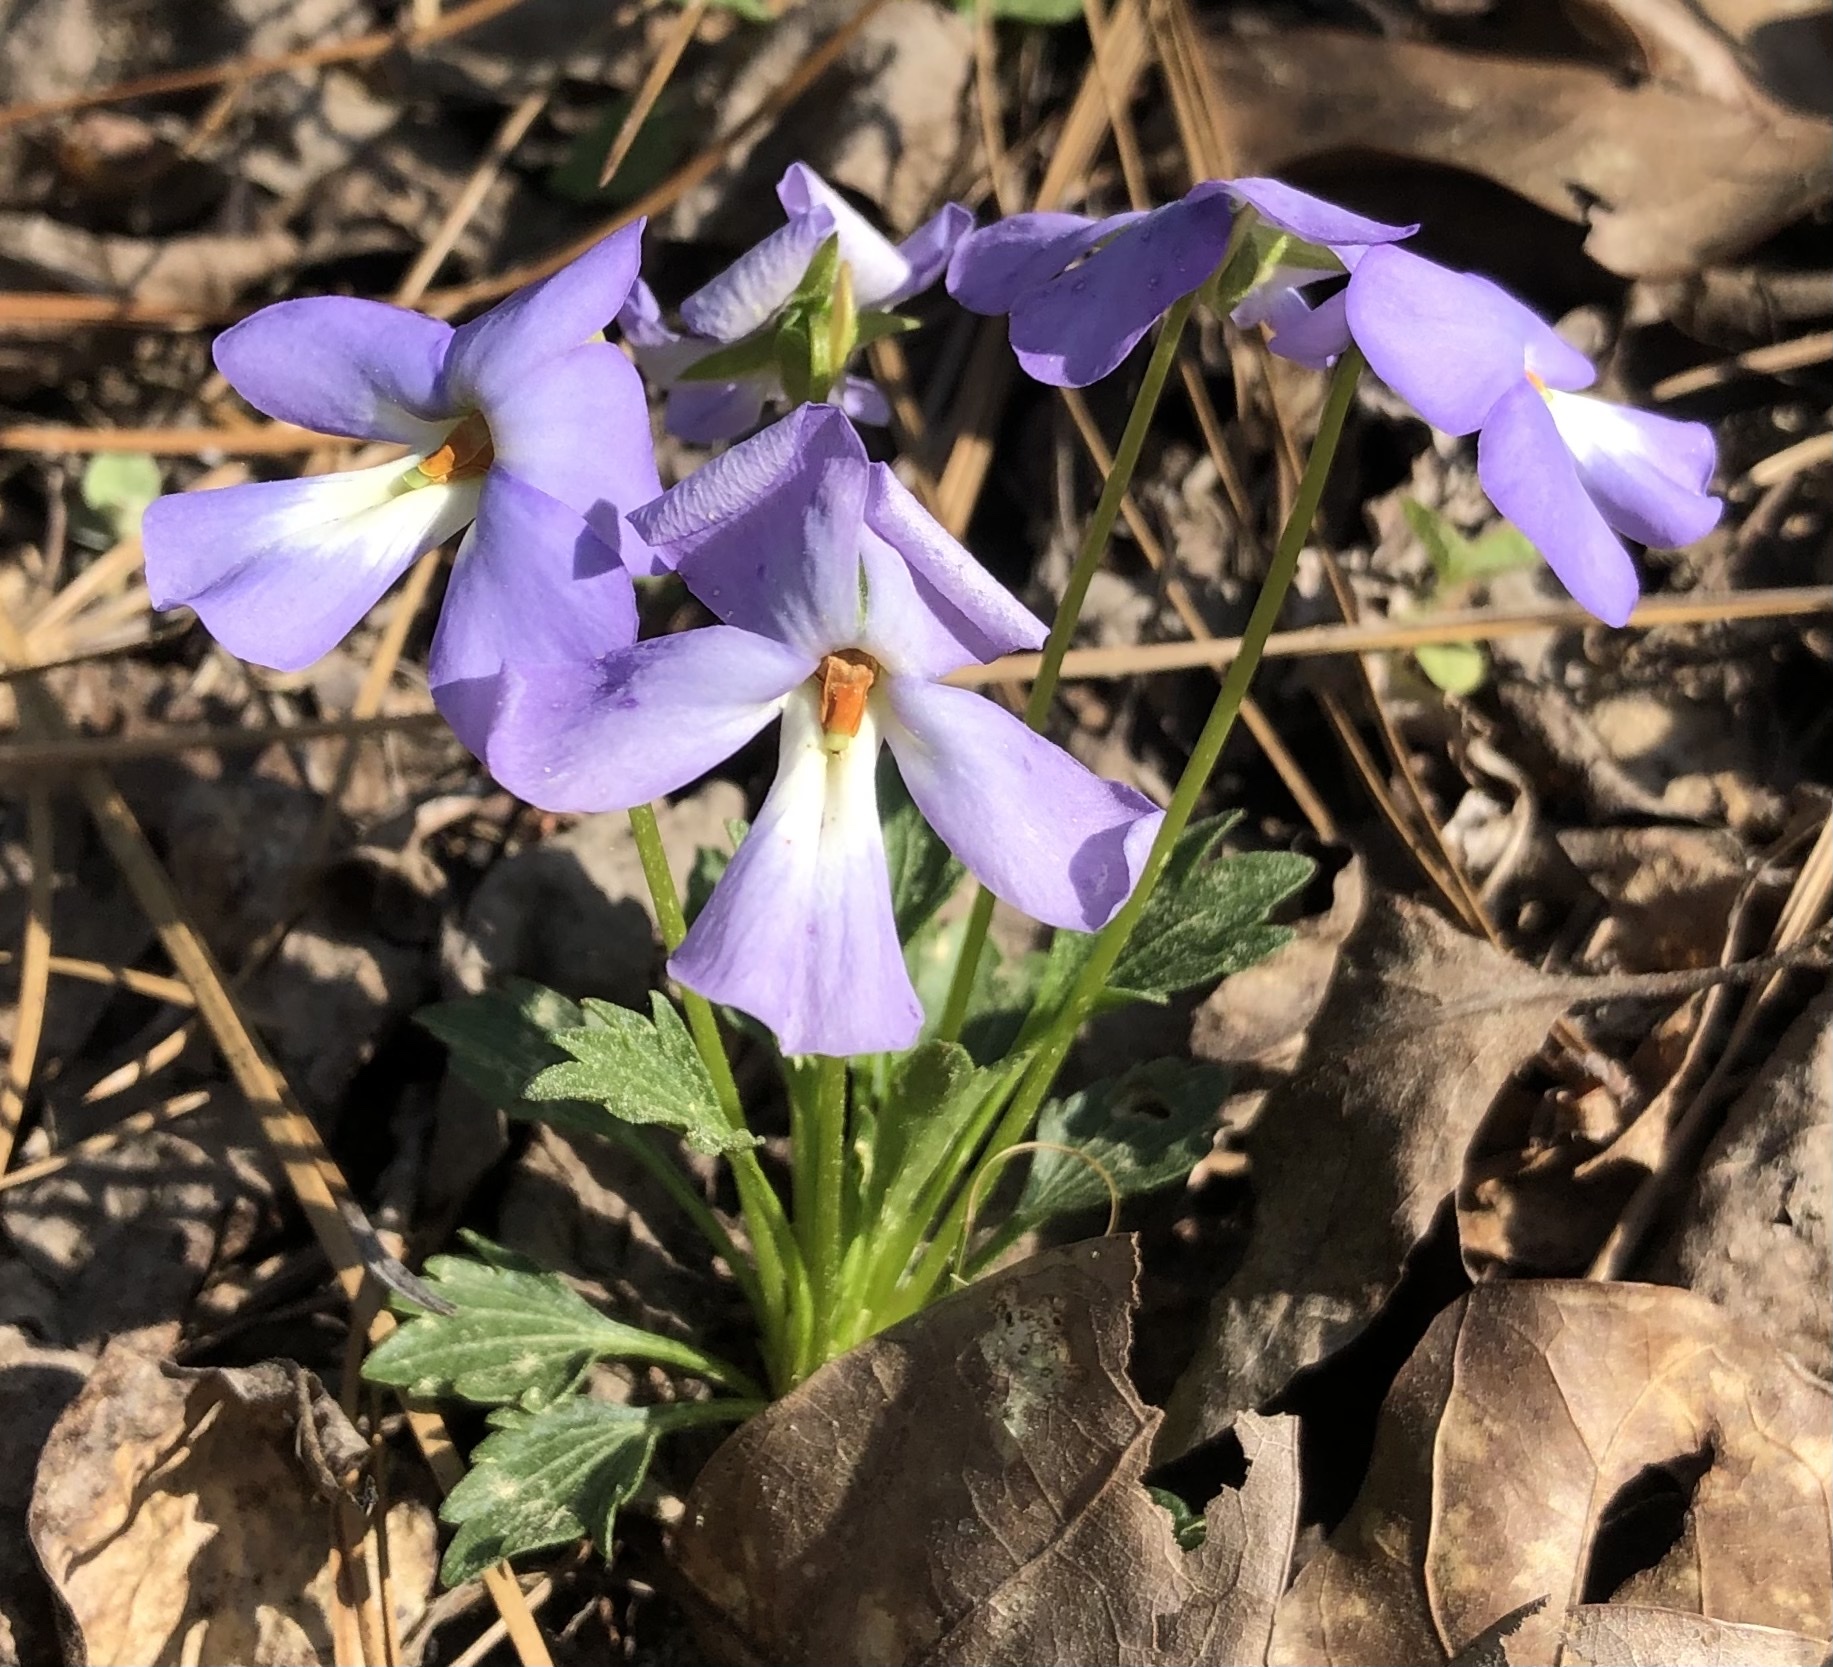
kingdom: Plantae
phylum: Tracheophyta
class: Magnoliopsida
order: Malpighiales
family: Violaceae
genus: Viola
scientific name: Viola pedata
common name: Pansy violet
